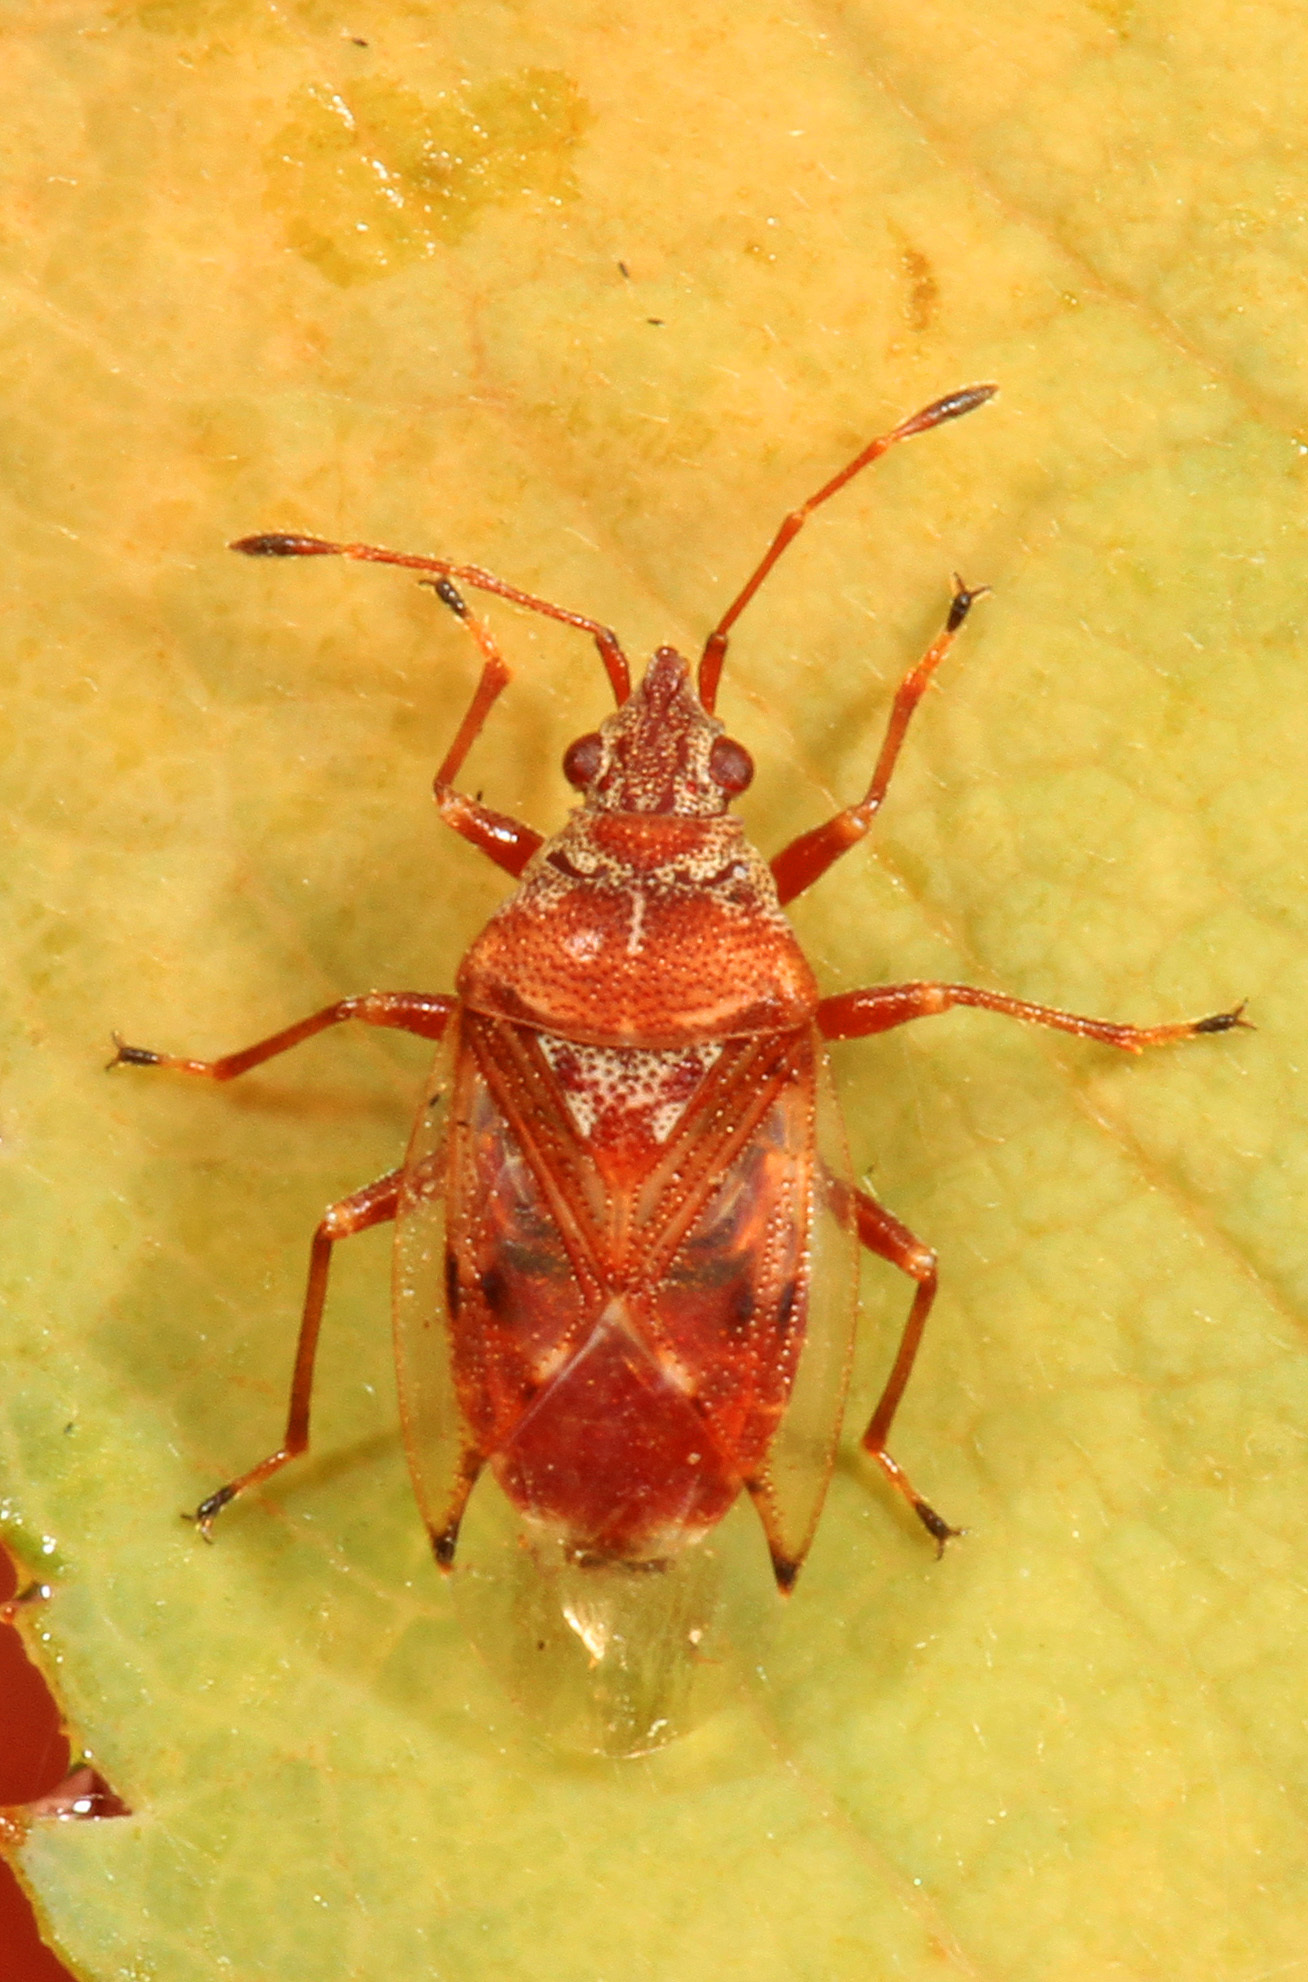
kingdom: Animalia
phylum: Arthropoda
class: Insecta
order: Hemiptera
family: Lygaeidae
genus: Kleidocerys
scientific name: Kleidocerys ovalis
